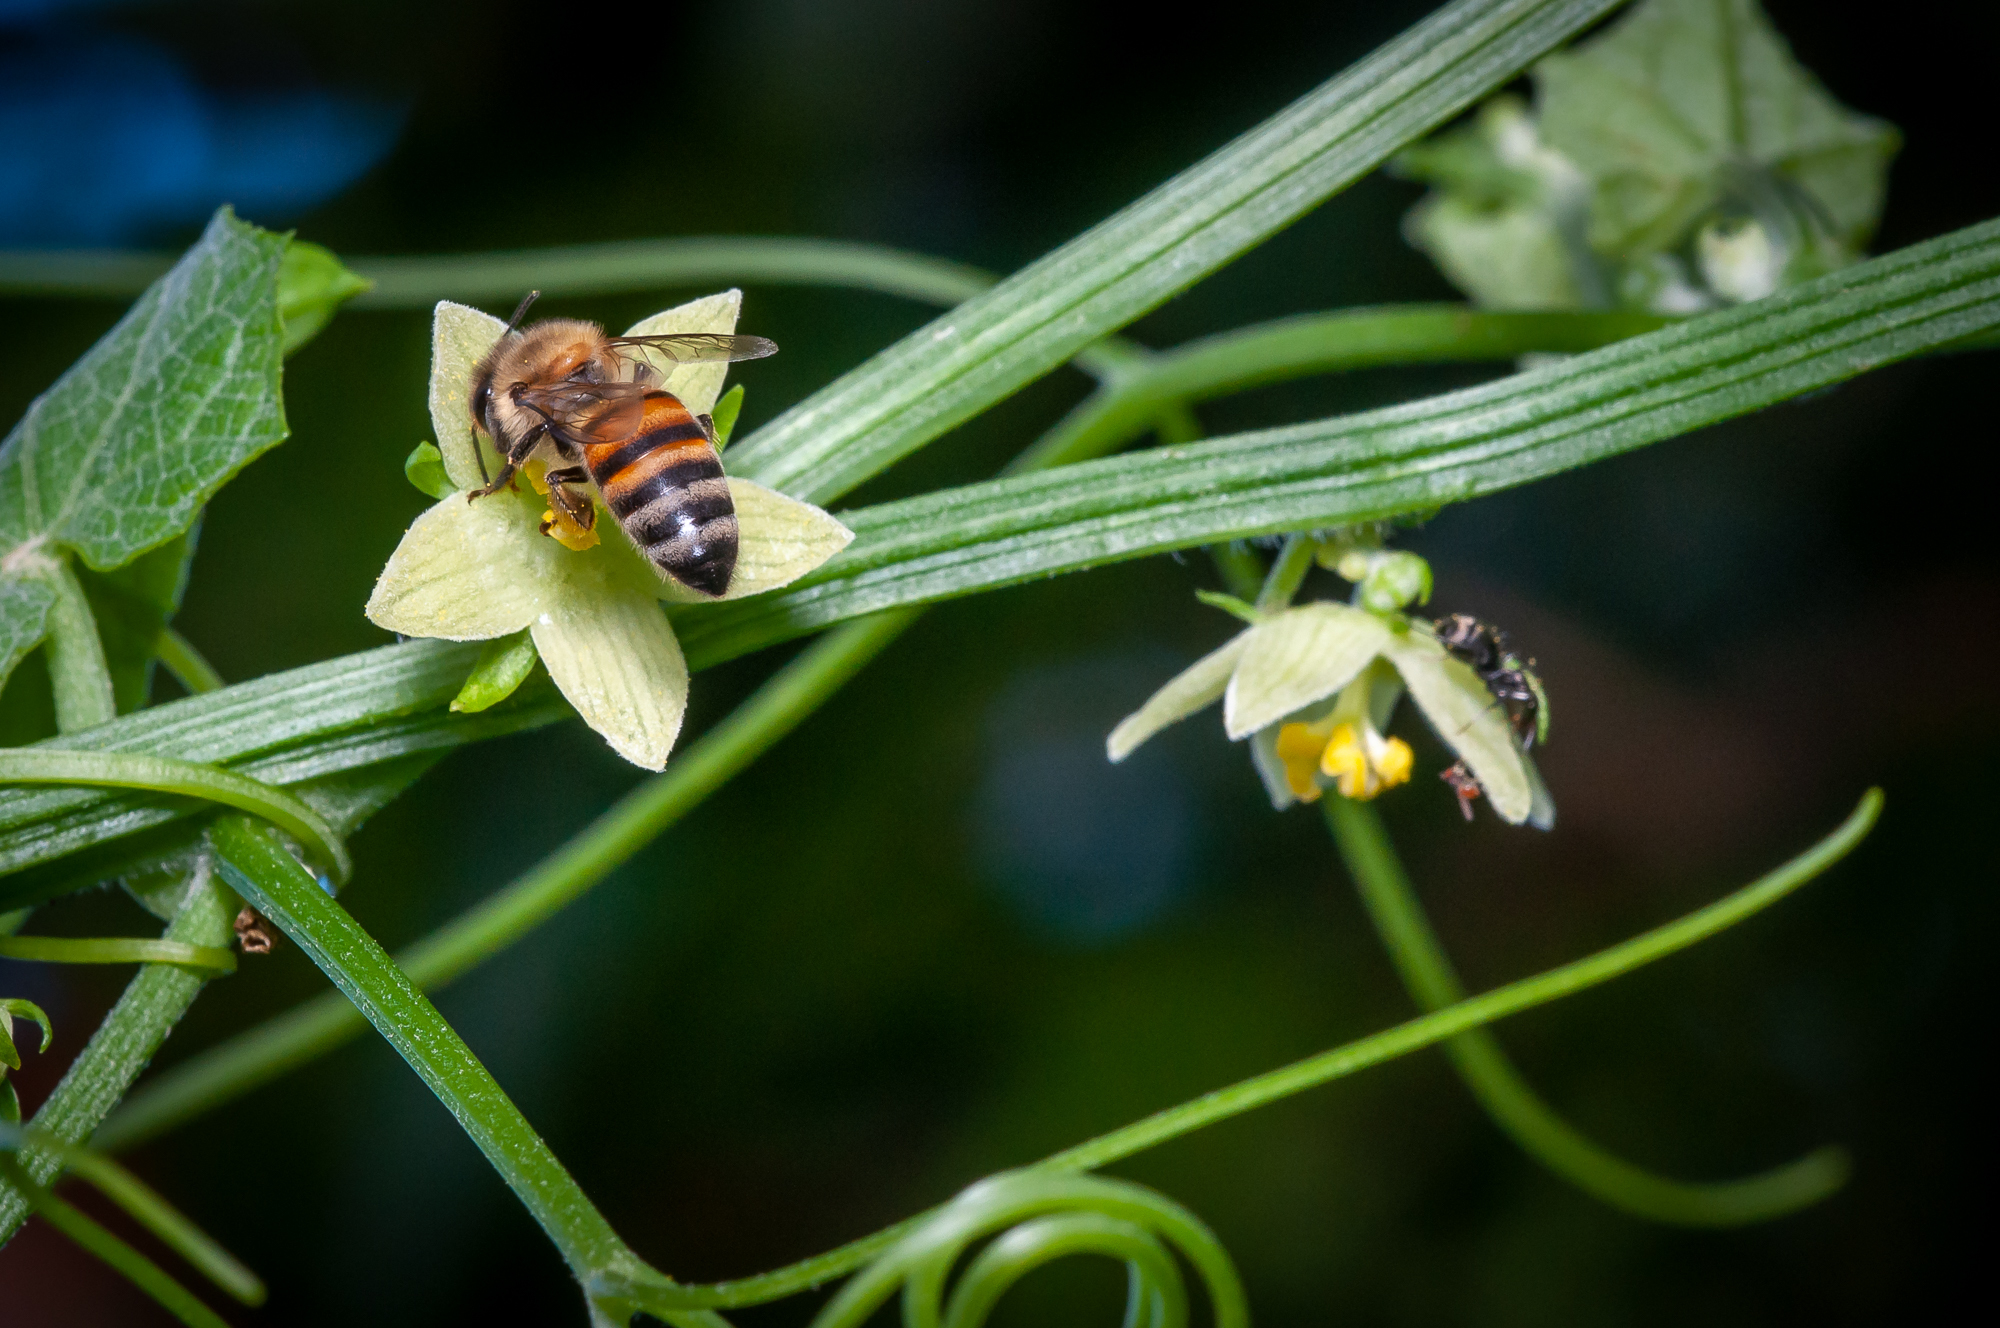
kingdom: Animalia
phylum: Arthropoda
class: Insecta
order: Hymenoptera
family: Apidae
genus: Apis
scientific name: Apis mellifera
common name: Honey bee
